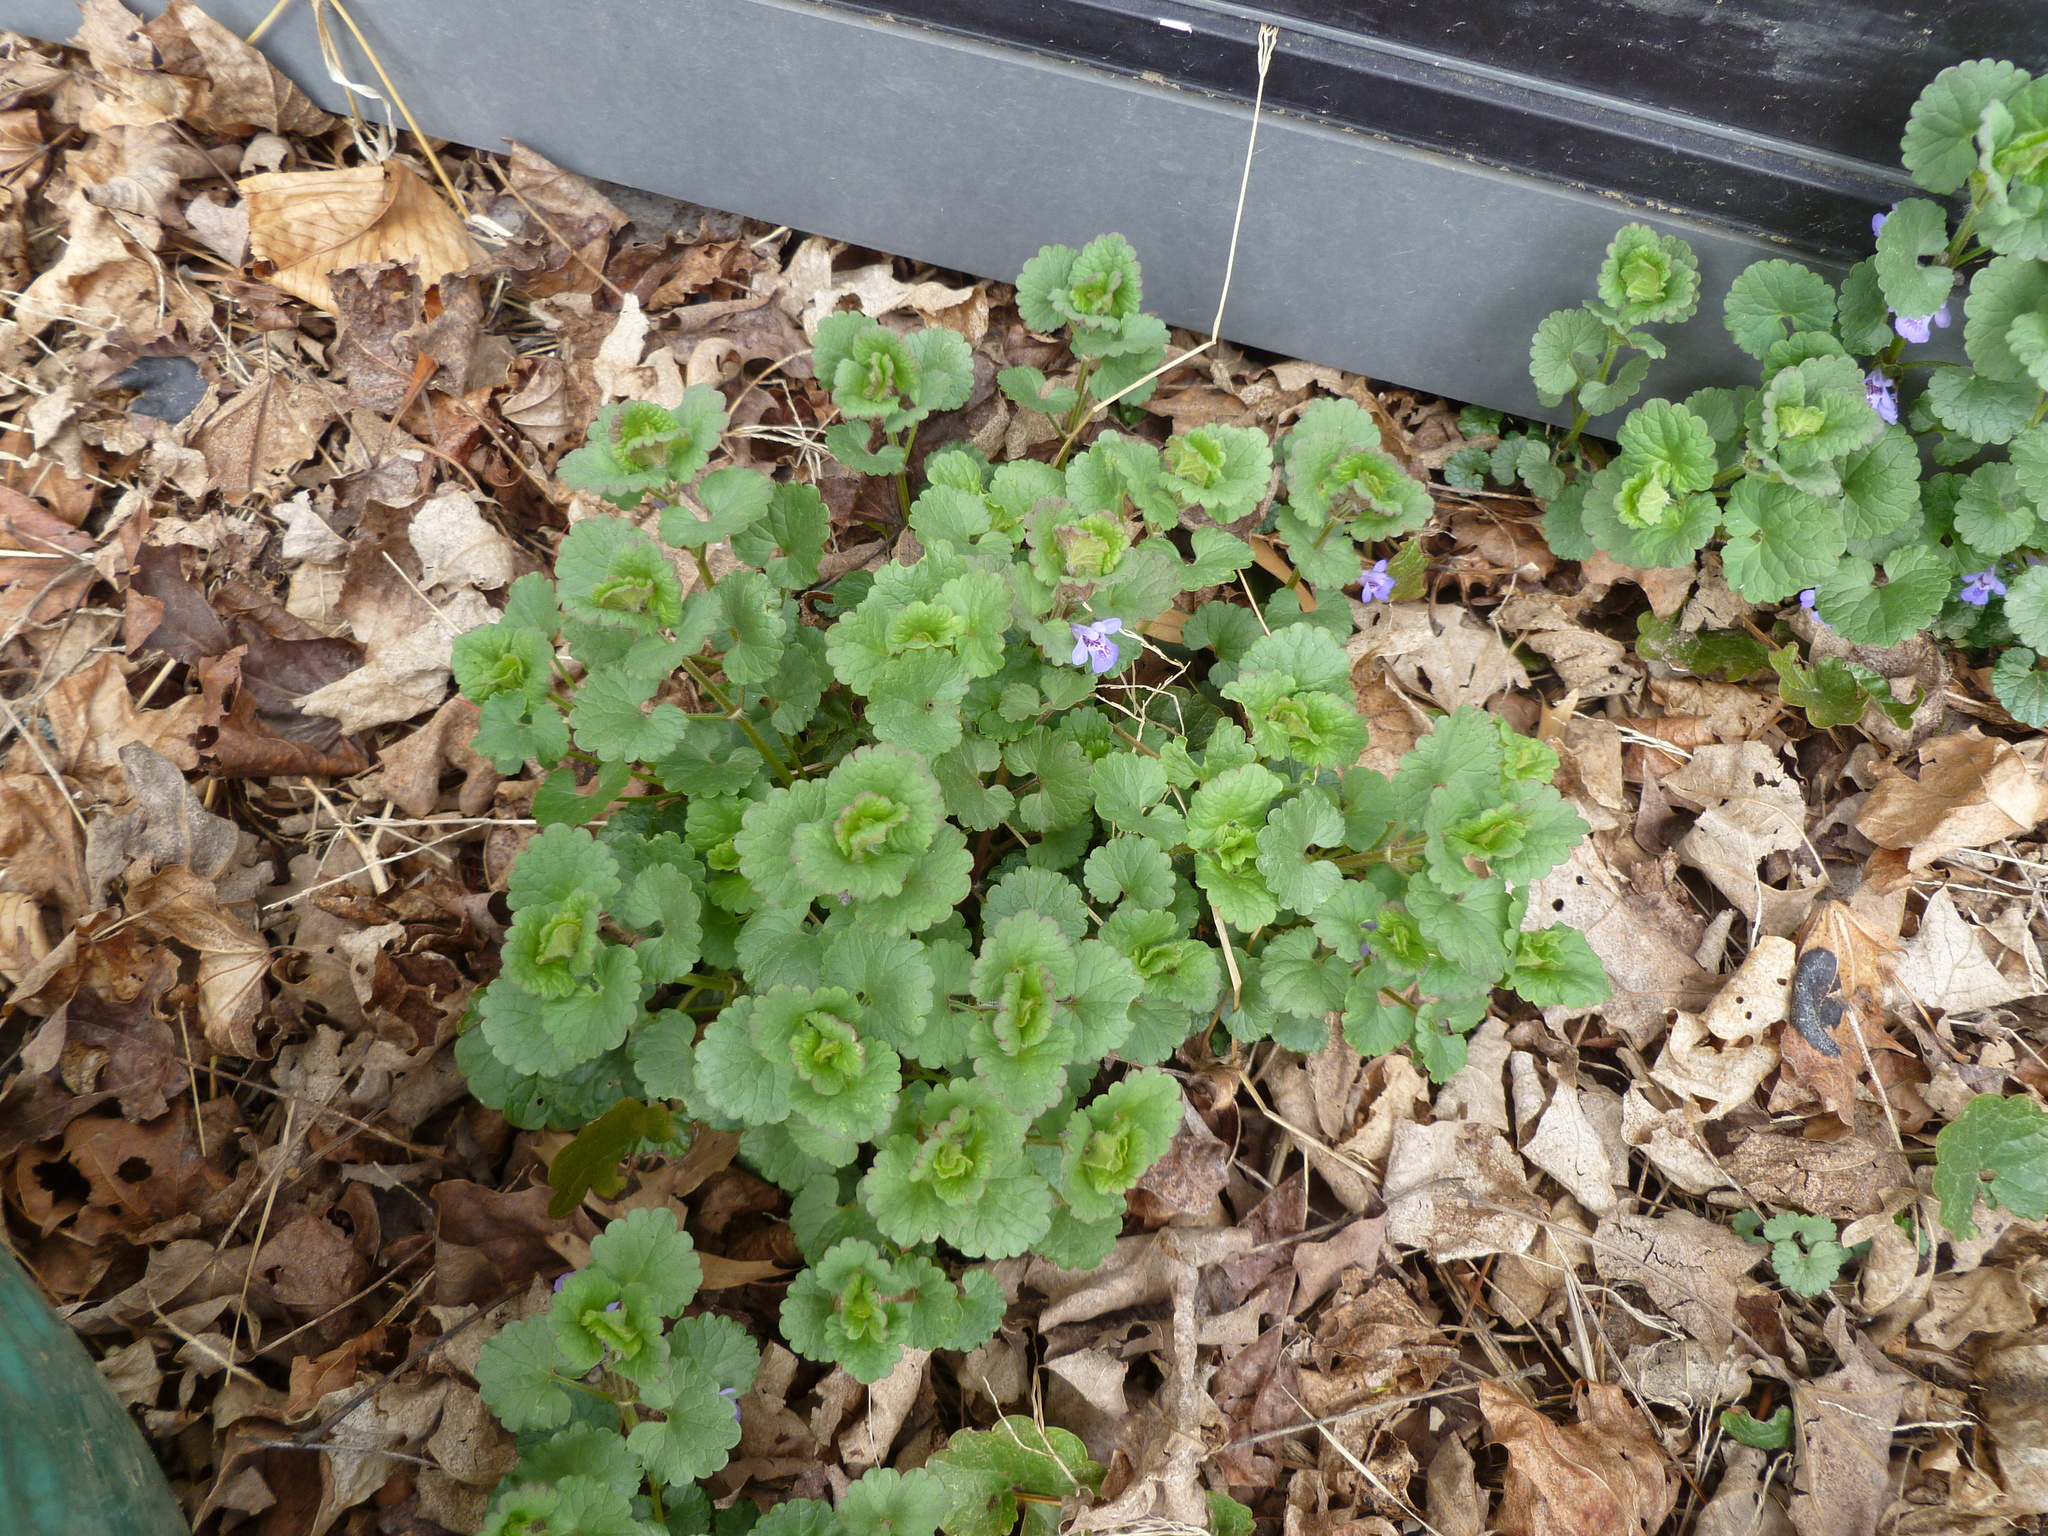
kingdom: Plantae
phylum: Tracheophyta
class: Magnoliopsida
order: Lamiales
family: Lamiaceae
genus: Glechoma
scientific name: Glechoma hederacea
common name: Ground ivy
